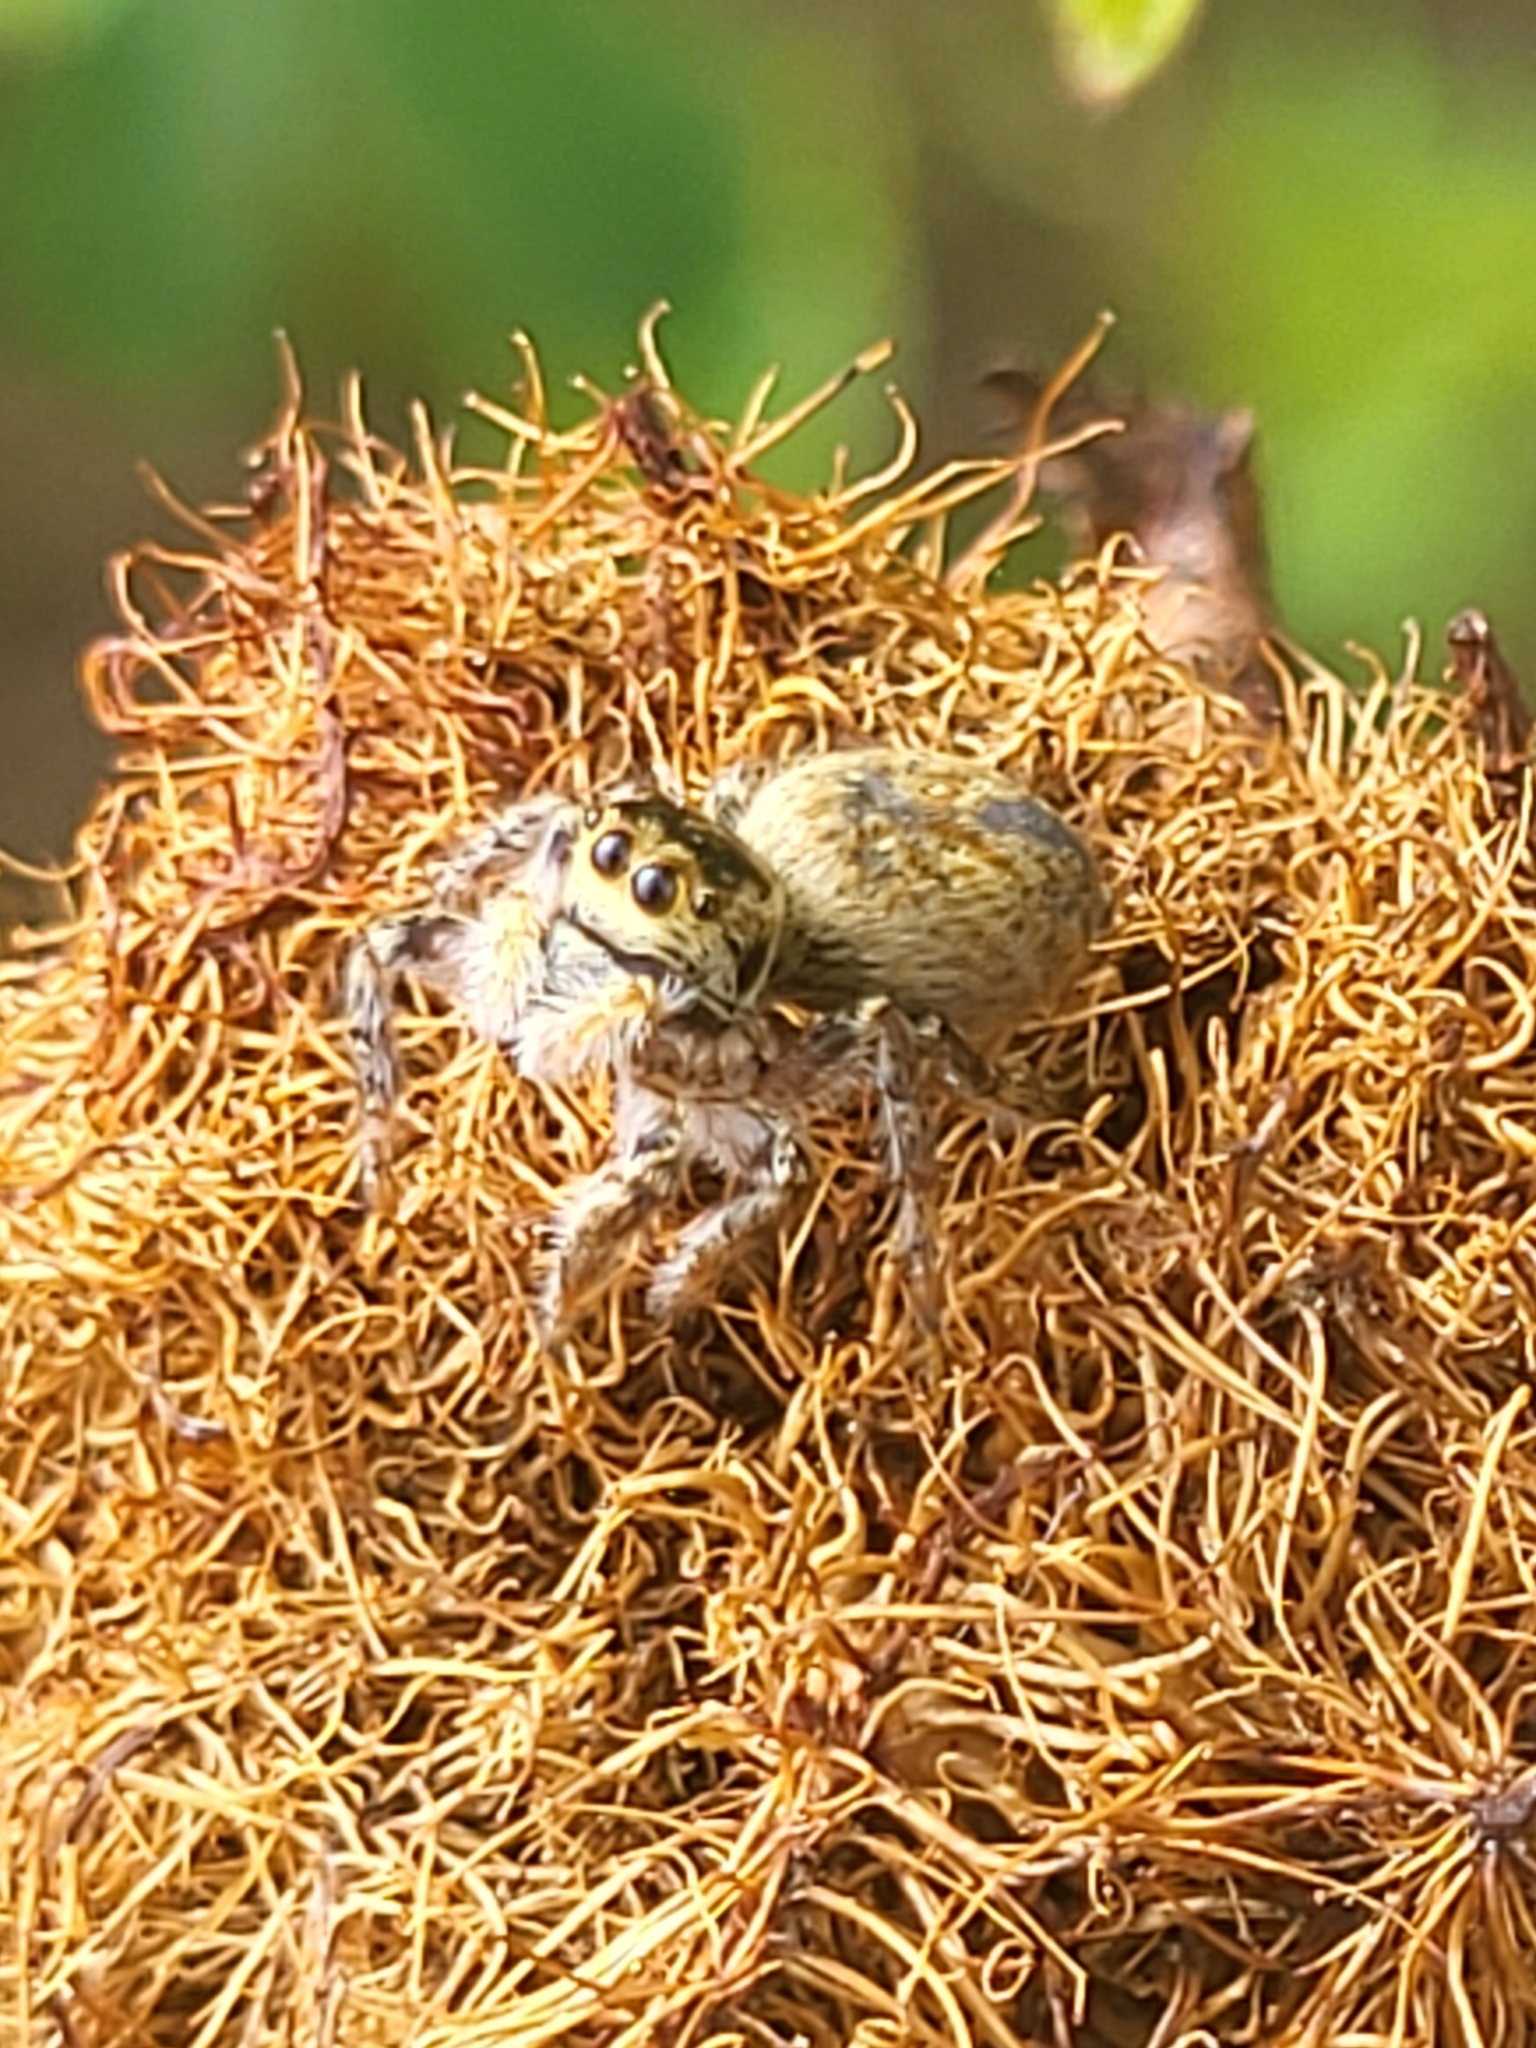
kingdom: Animalia
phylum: Arthropoda
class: Arachnida
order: Araneae
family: Salticidae
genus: Carrhotus
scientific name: Carrhotus xanthogramma
